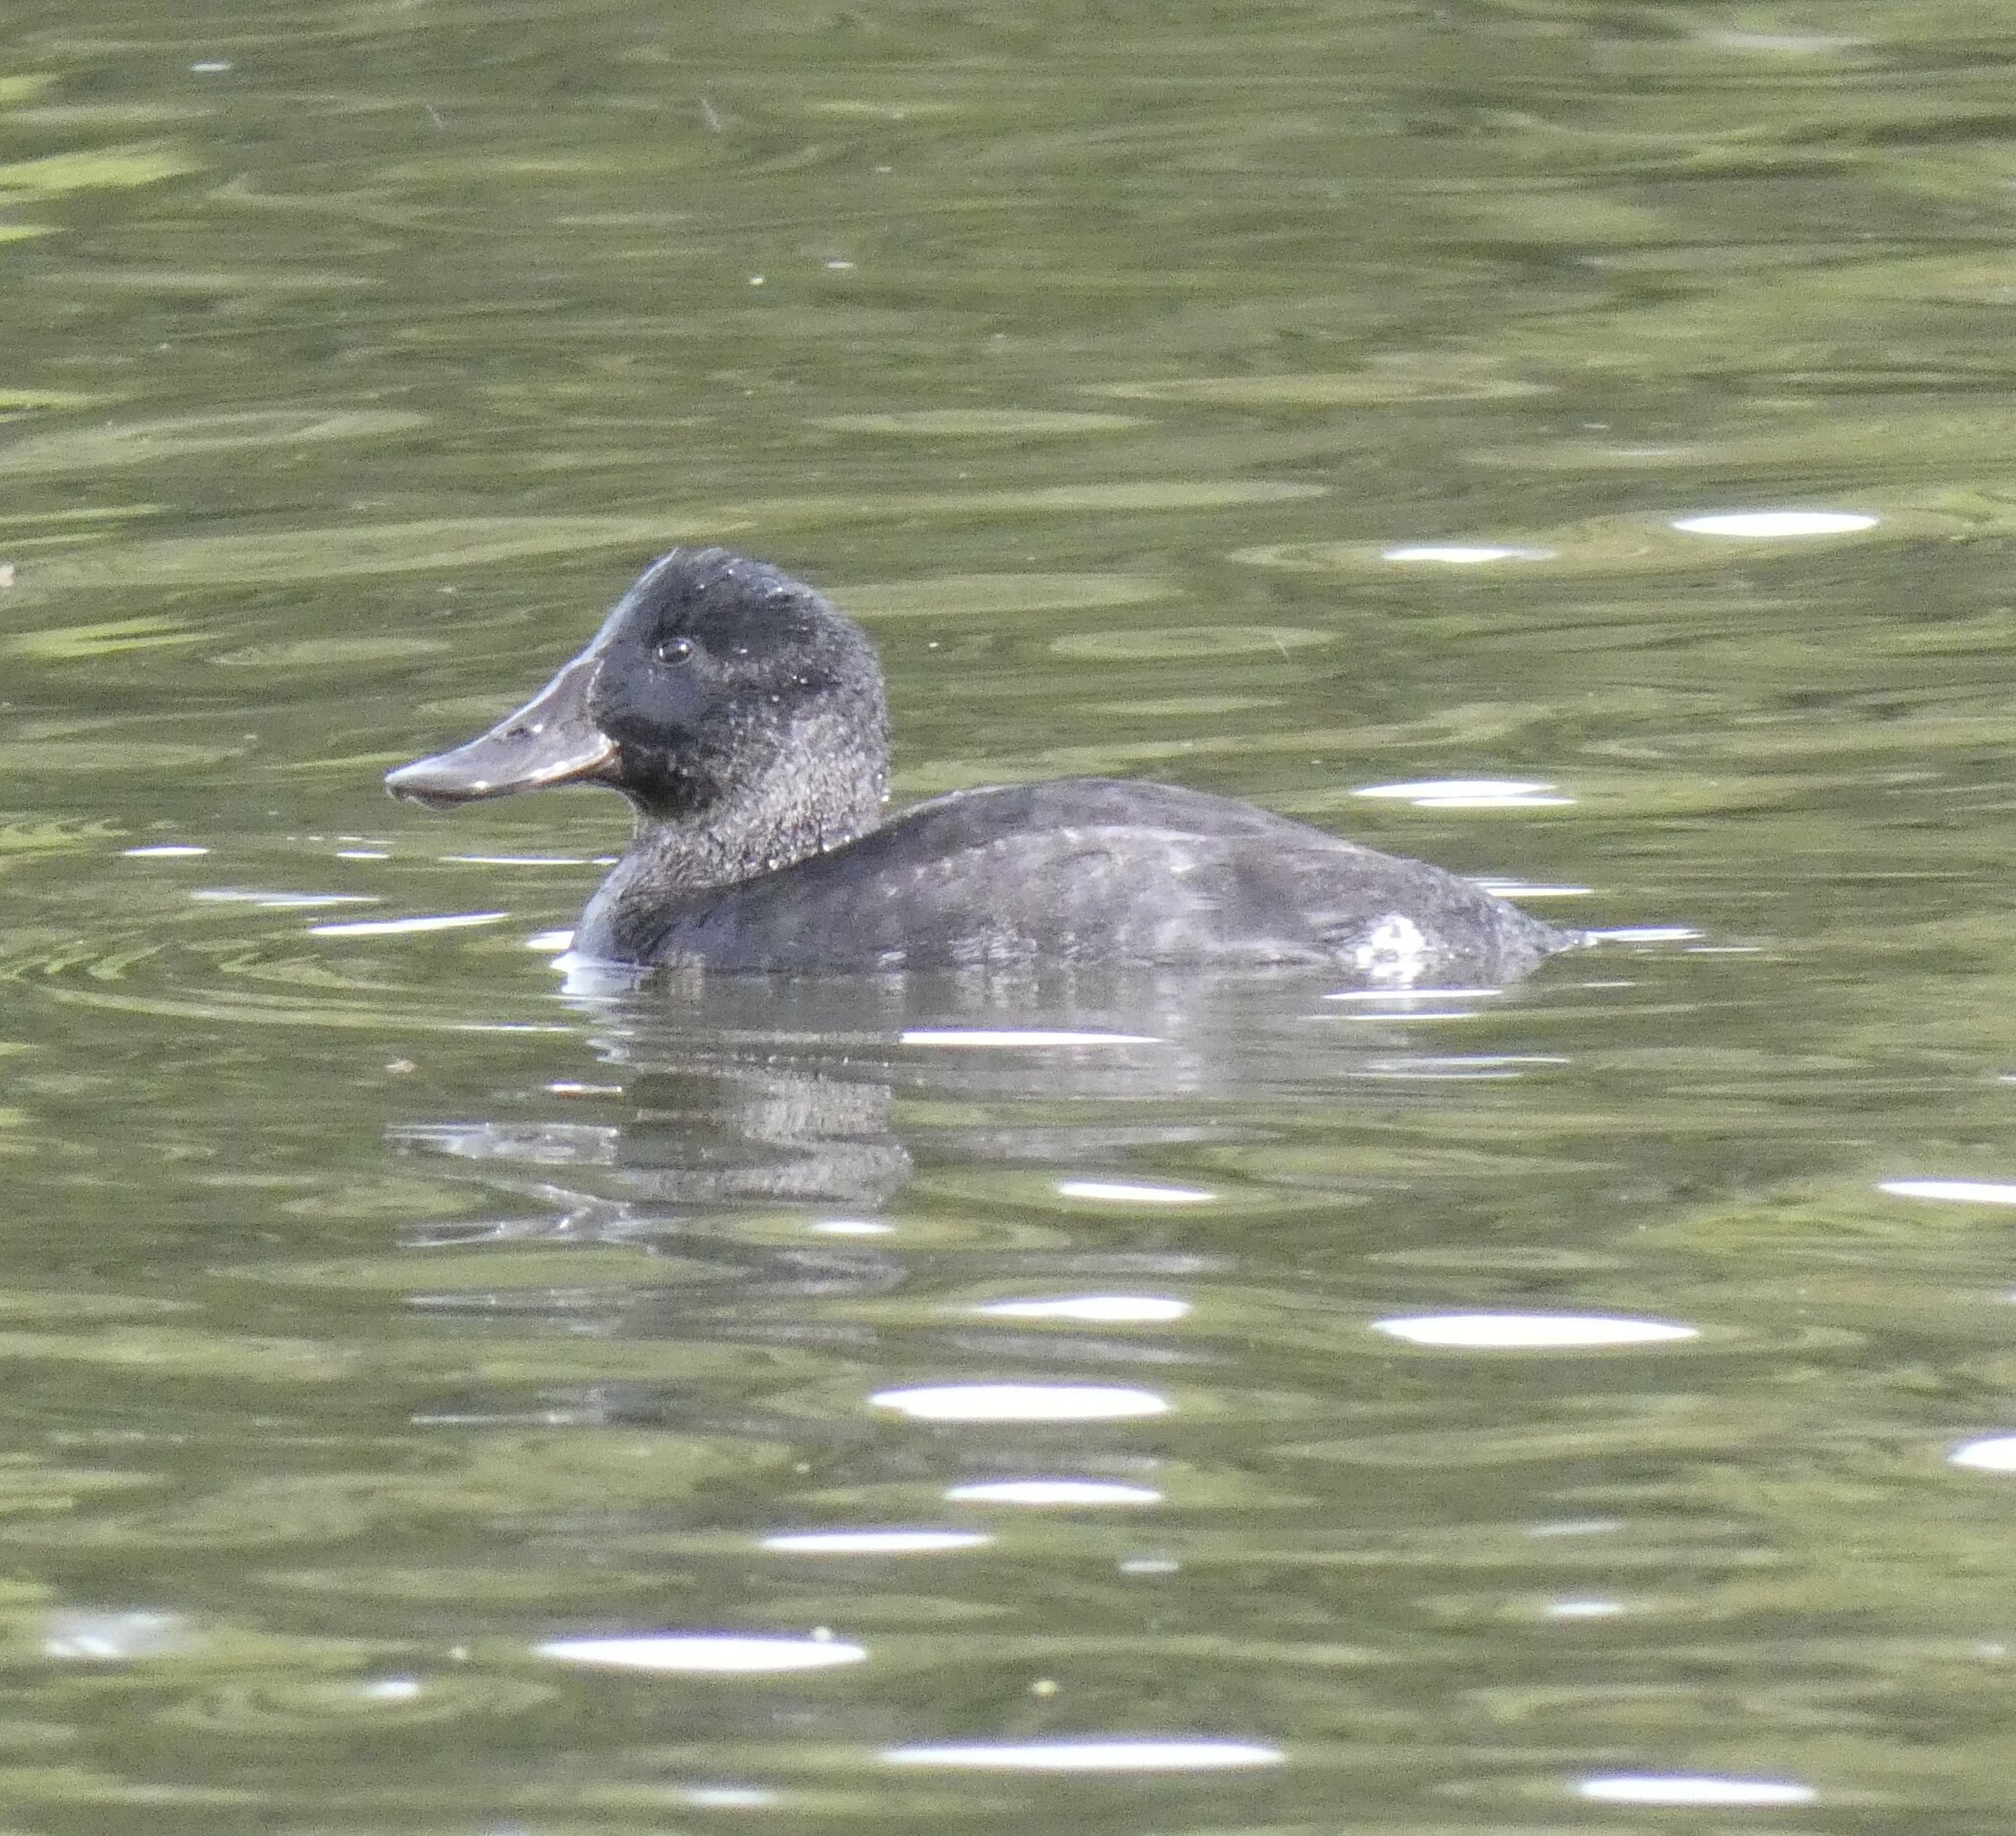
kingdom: Animalia
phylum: Chordata
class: Aves
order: Anseriformes
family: Anatidae
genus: Oxyura
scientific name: Oxyura ferruginea
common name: Andean duck
